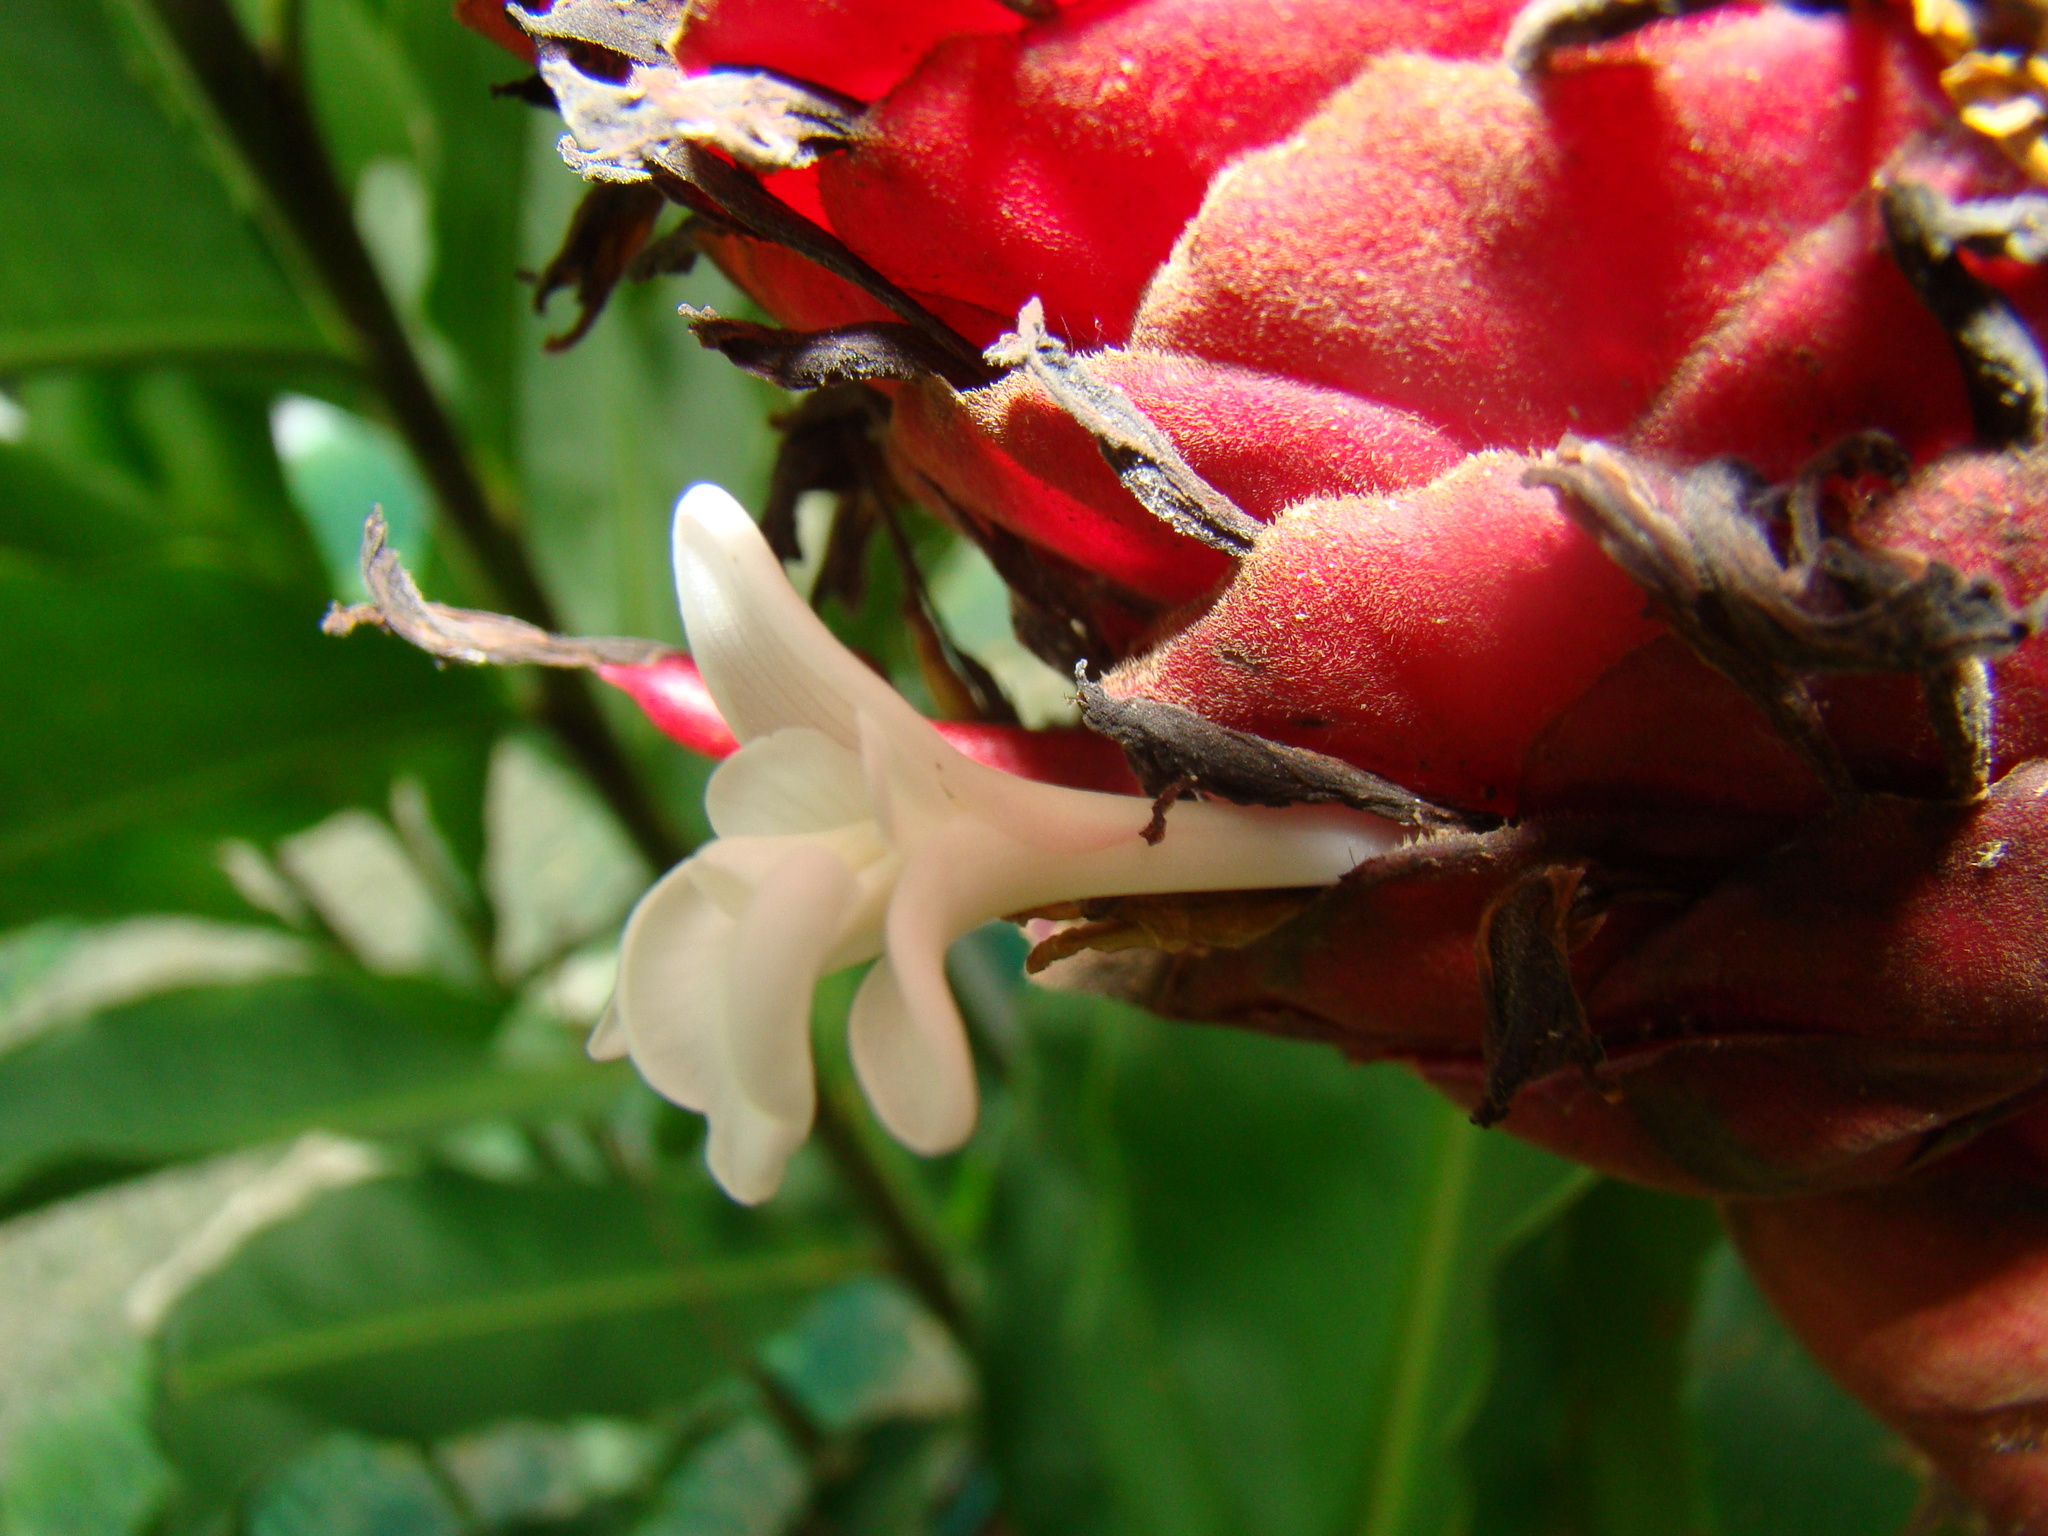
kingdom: Plantae
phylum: Tracheophyta
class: Liliopsida
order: Zingiberales
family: Zingiberaceae
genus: Alpinia
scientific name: Alpinia purpurata
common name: Red ginger
